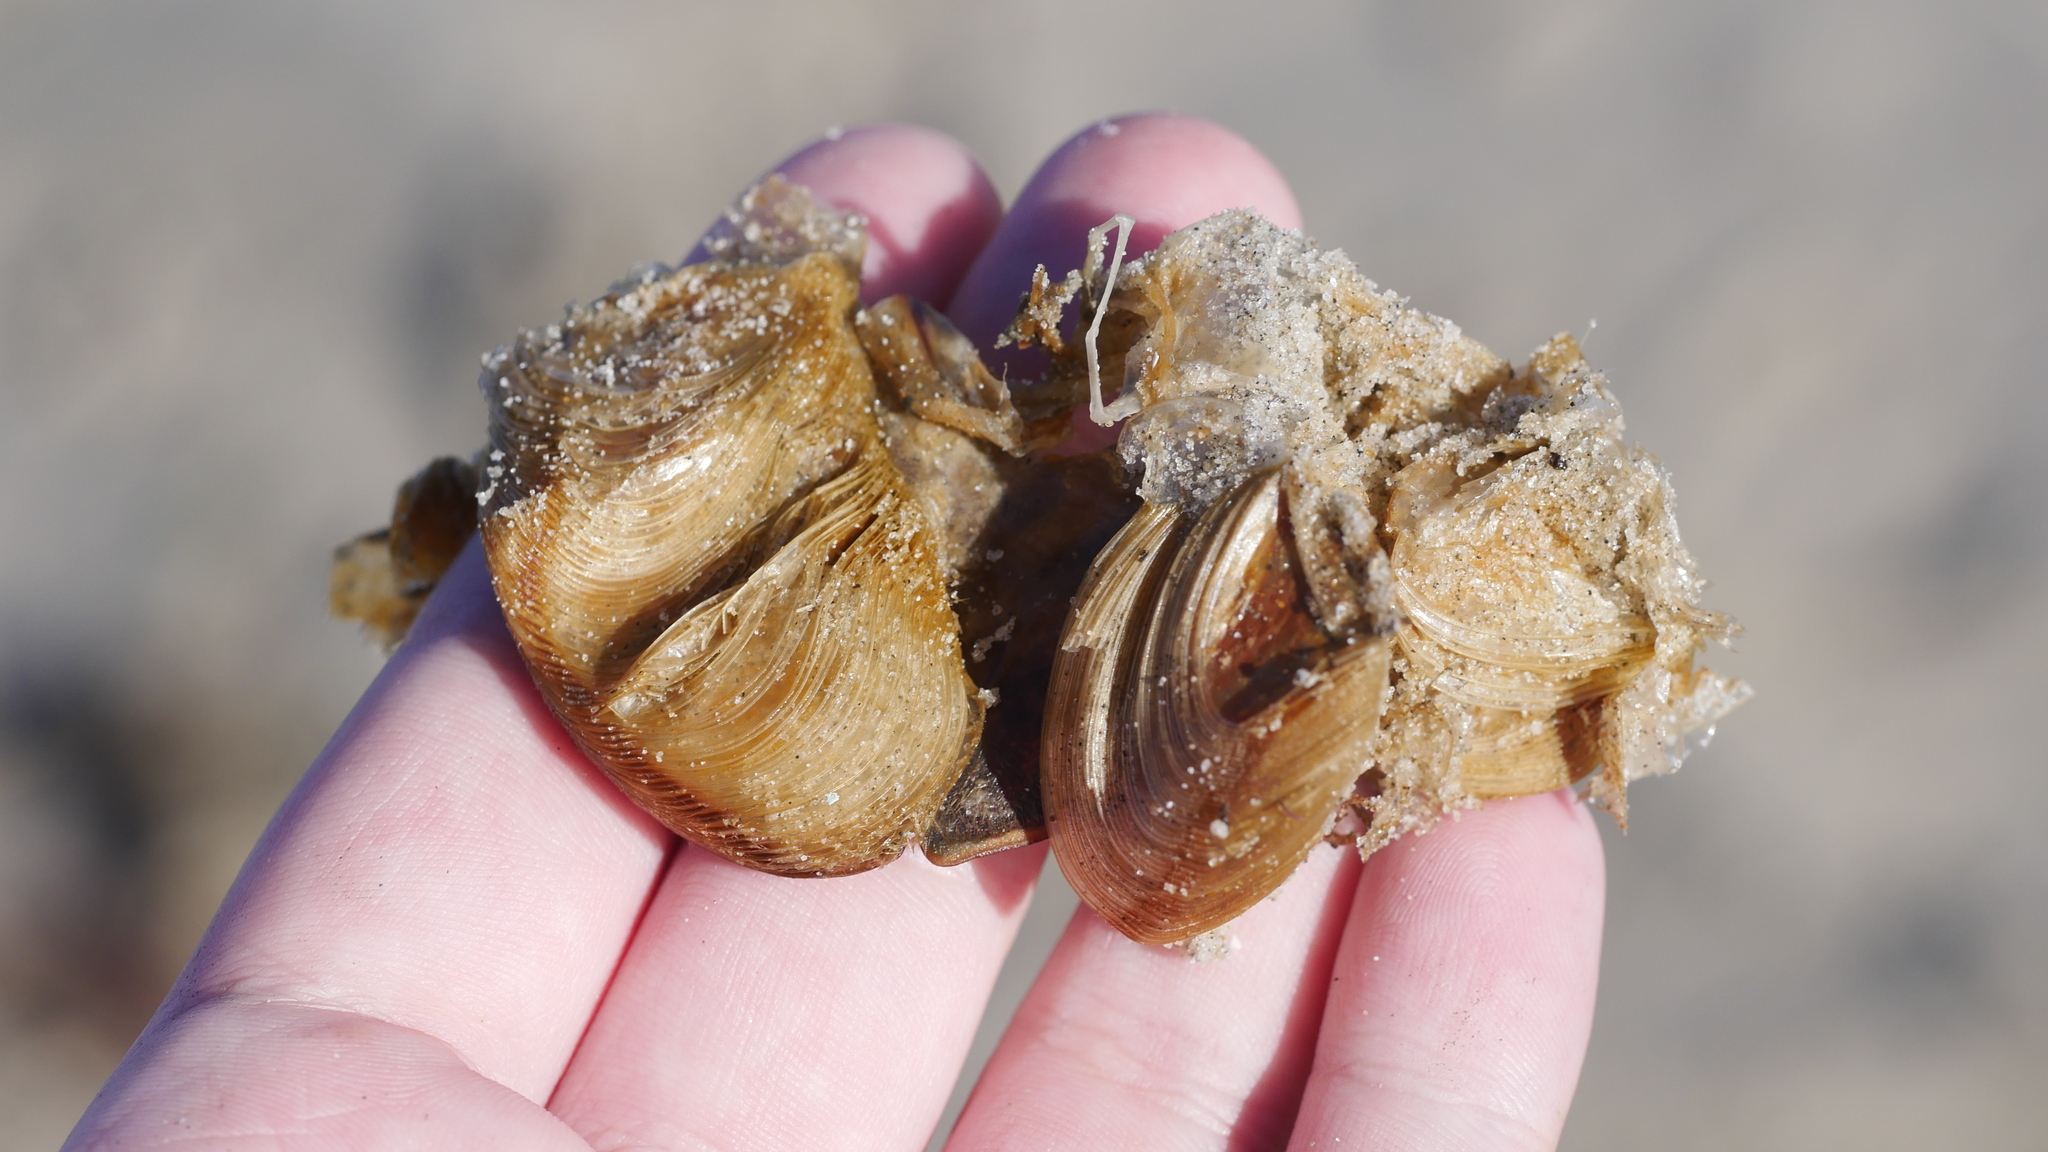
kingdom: Animalia
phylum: Arthropoda
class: Merostomata
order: Xiphosurida
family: Limulidae
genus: Limulus
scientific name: Limulus polyphemus
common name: Horseshoe crab
